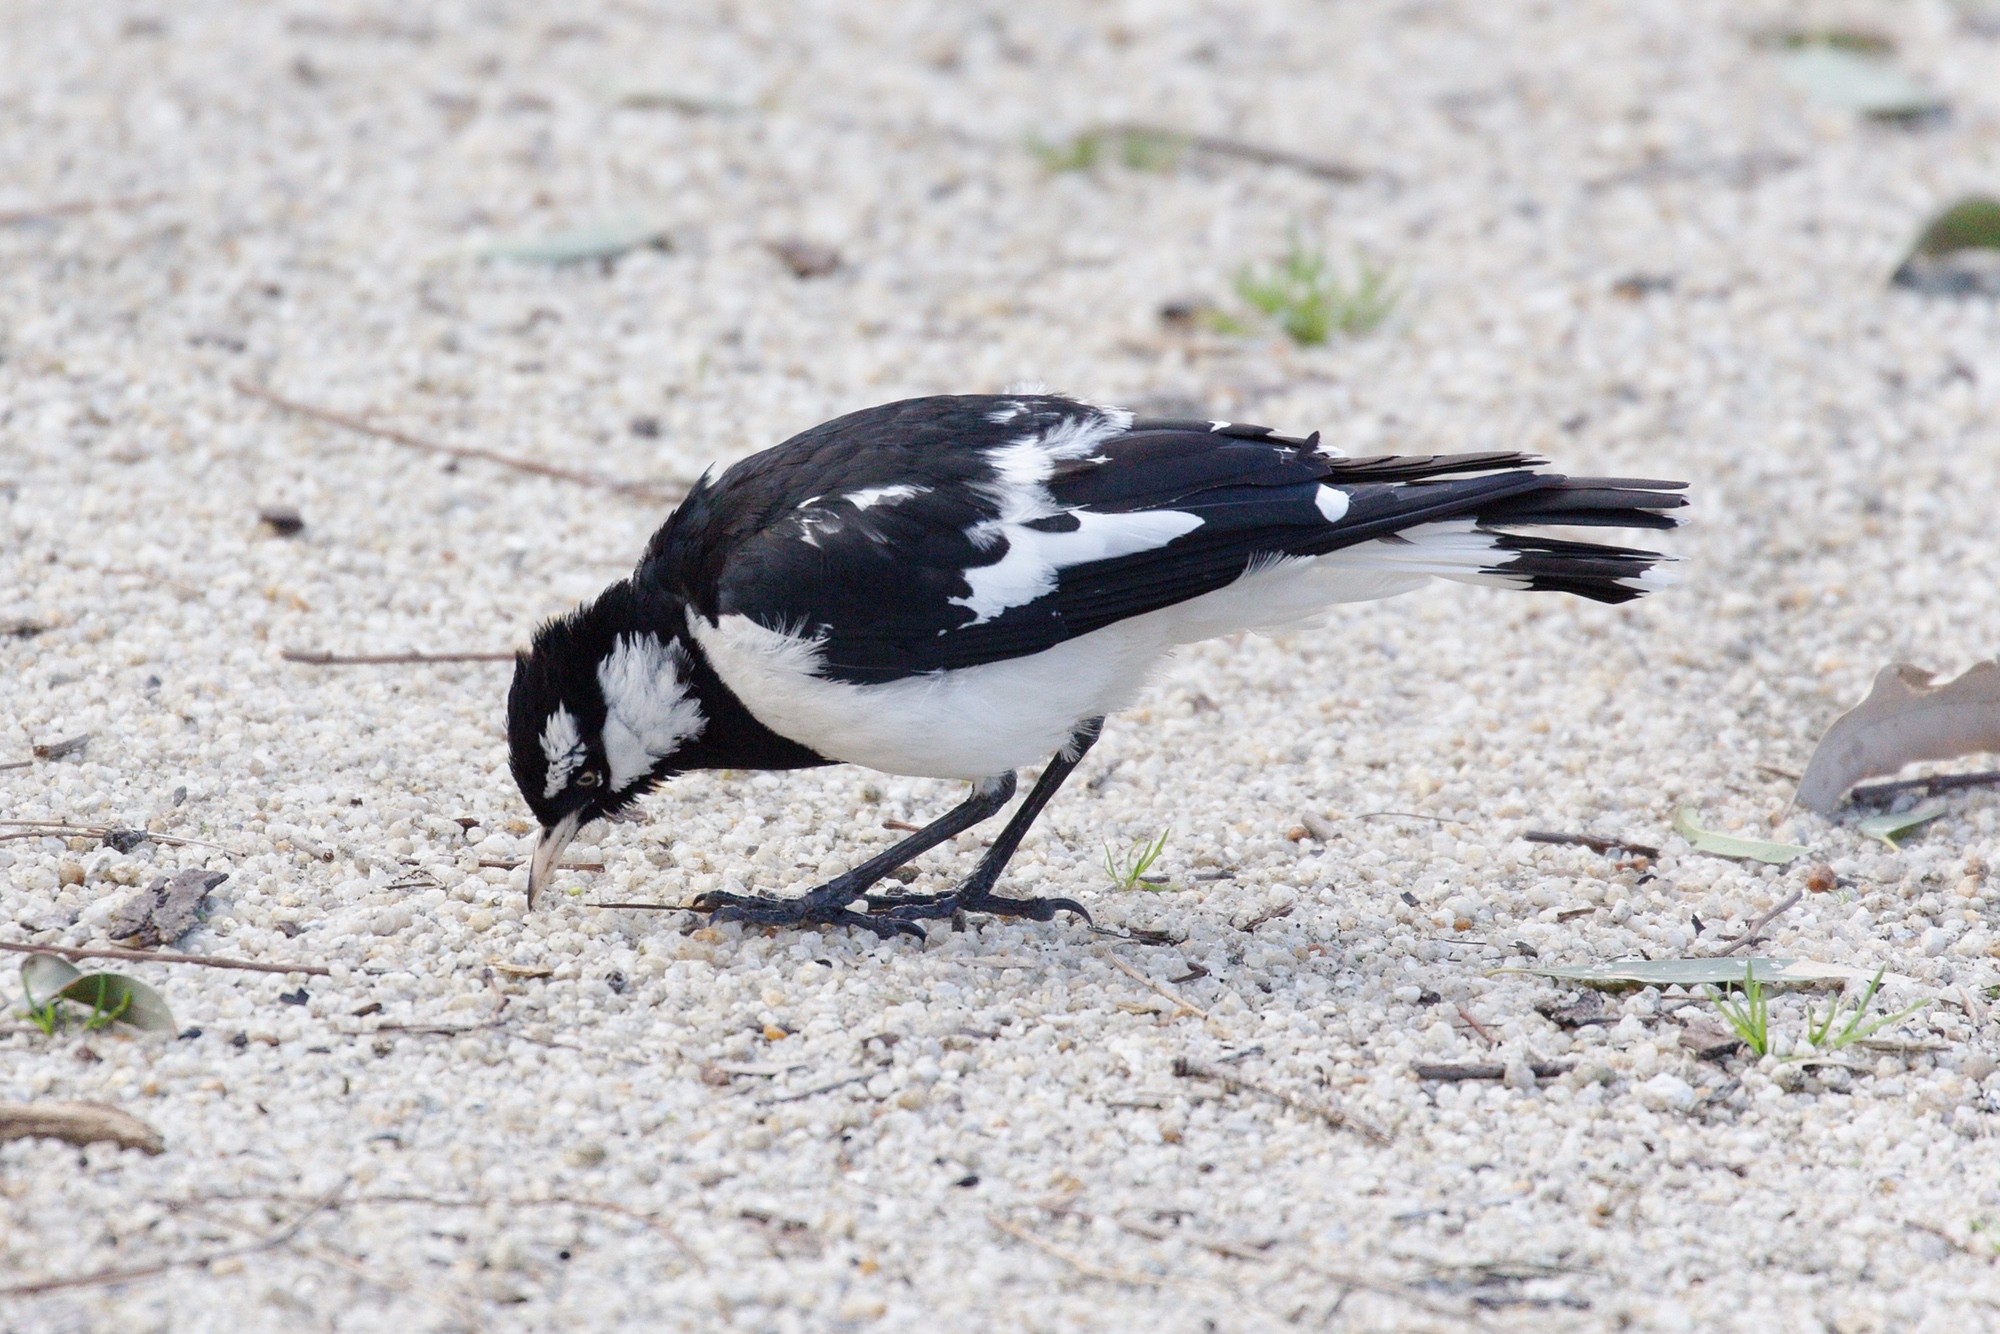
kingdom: Animalia
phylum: Chordata
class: Aves
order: Passeriformes
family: Monarchidae
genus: Grallina
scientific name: Grallina cyanoleuca
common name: Magpie-lark
